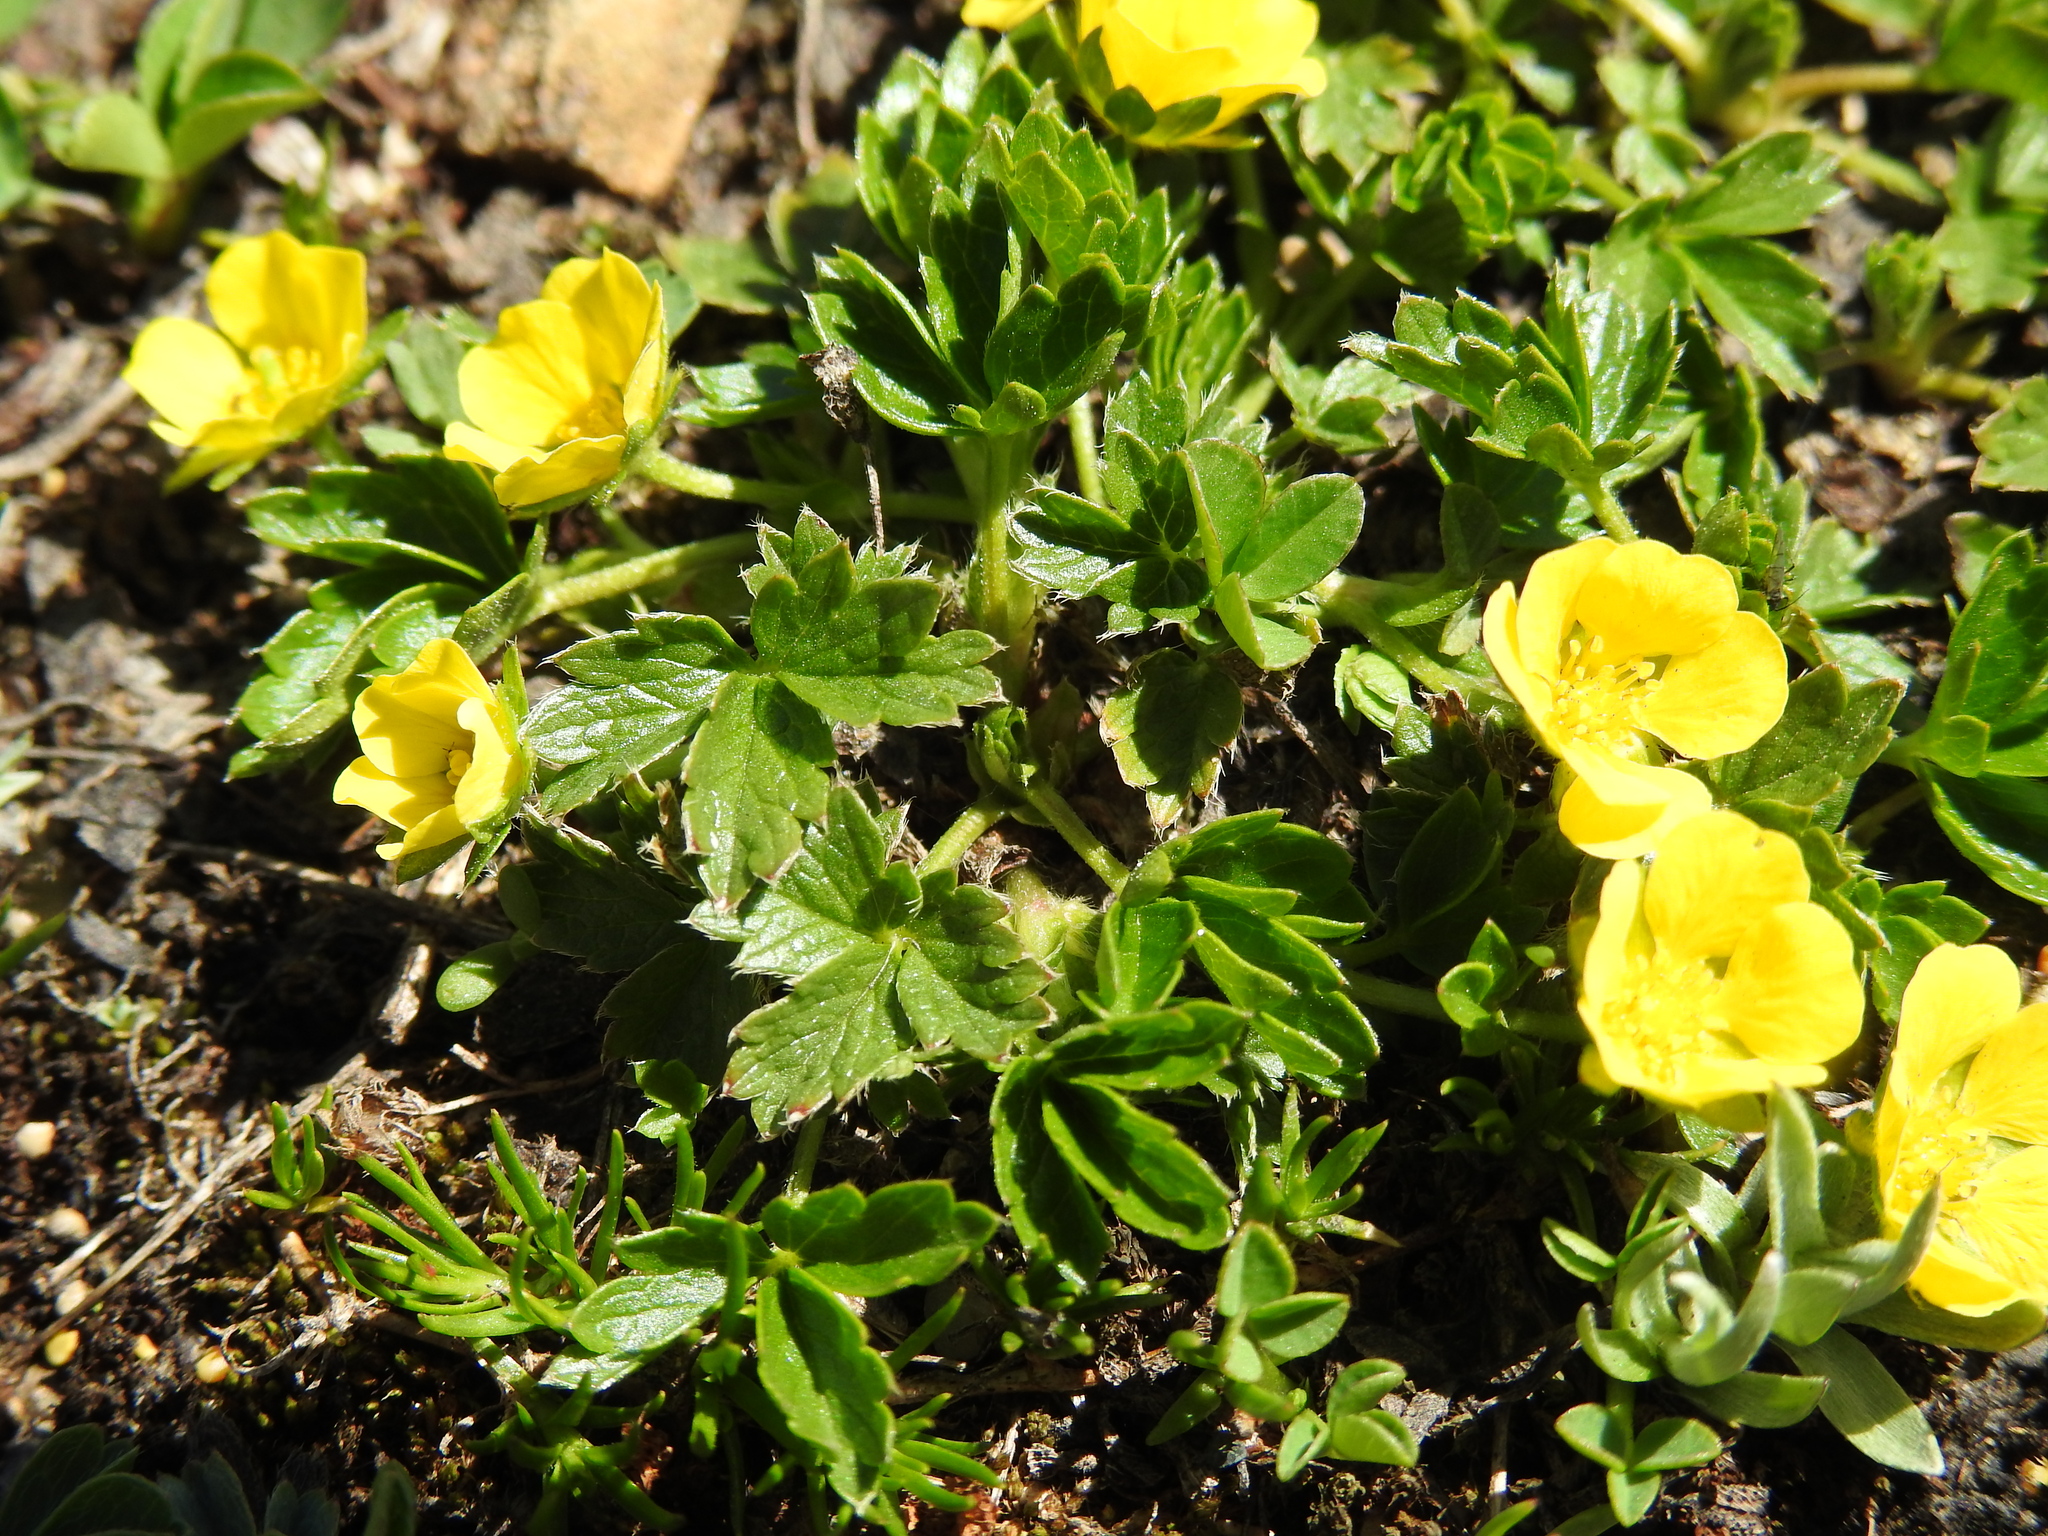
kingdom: Plantae
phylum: Tracheophyta
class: Magnoliopsida
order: Rosales
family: Rosaceae
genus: Potentilla
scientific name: Potentilla brauneana
